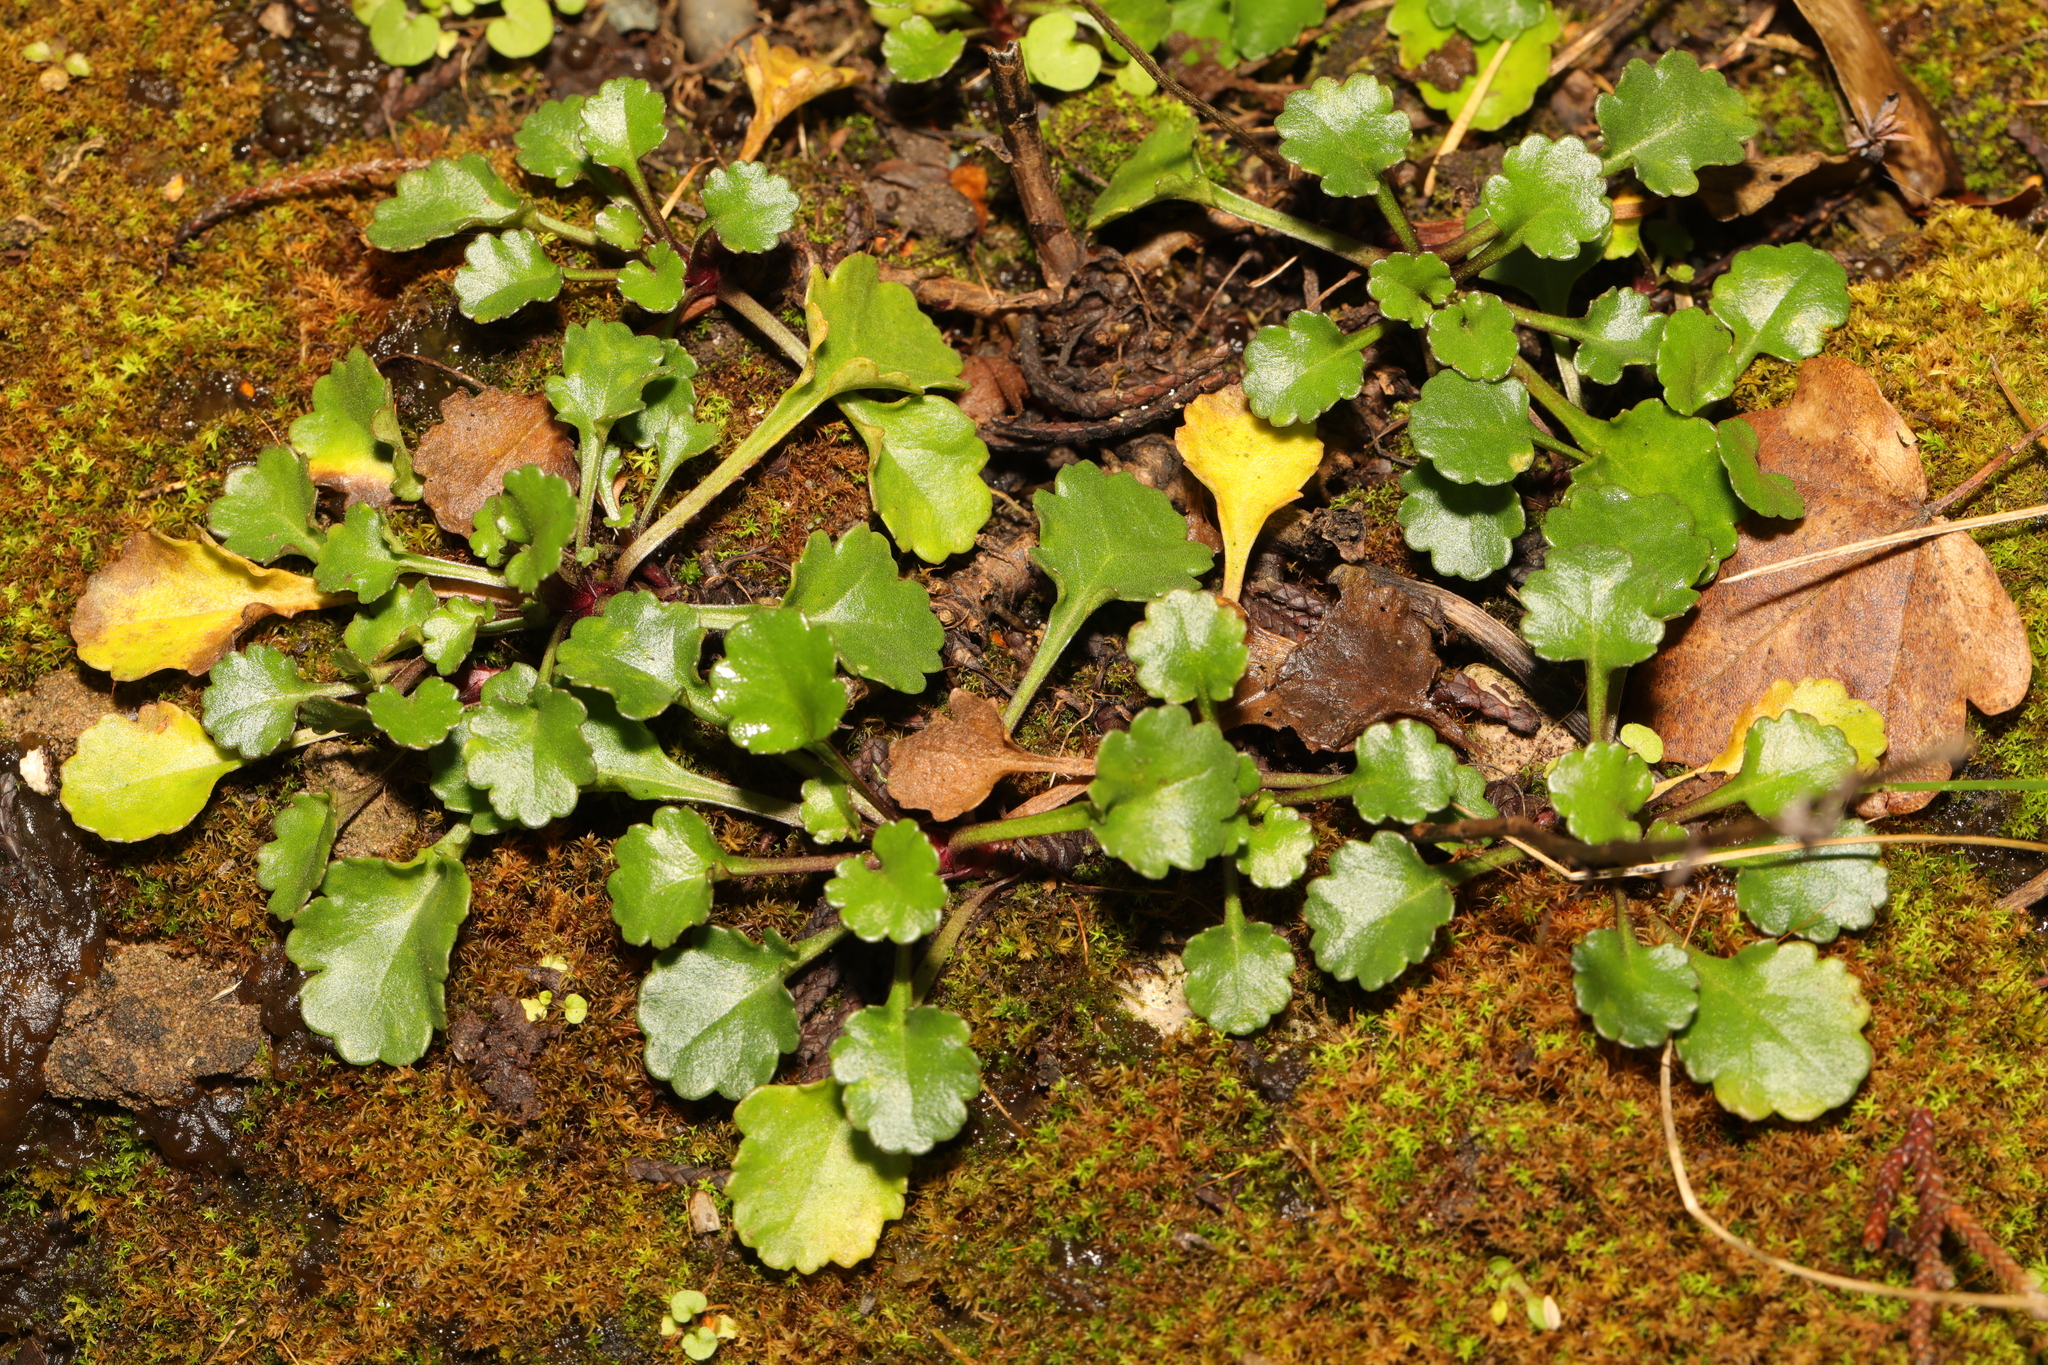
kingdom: Plantae
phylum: Tracheophyta
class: Magnoliopsida
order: Asterales
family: Asteraceae
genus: Leucanthemum
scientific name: Leucanthemum vulgare
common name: Oxeye daisy
